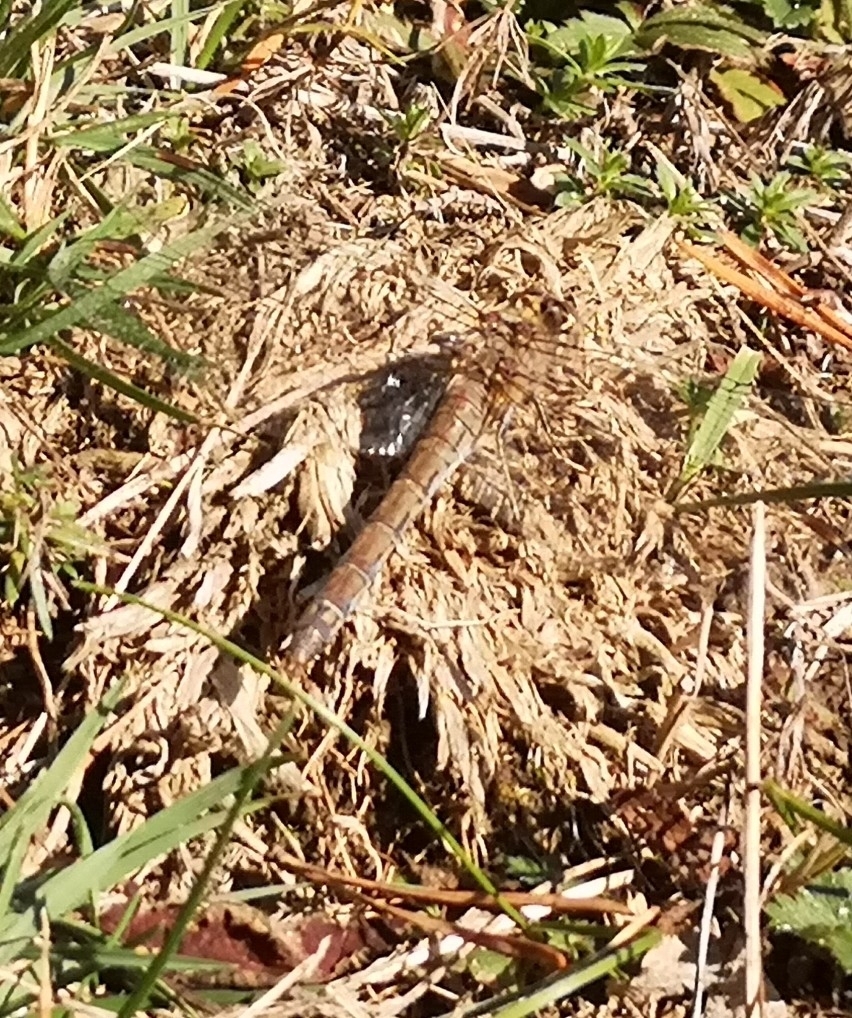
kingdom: Animalia
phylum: Arthropoda
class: Insecta
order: Odonata
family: Libellulidae
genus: Sympetrum
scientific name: Sympetrum striolatum
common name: Common darter
